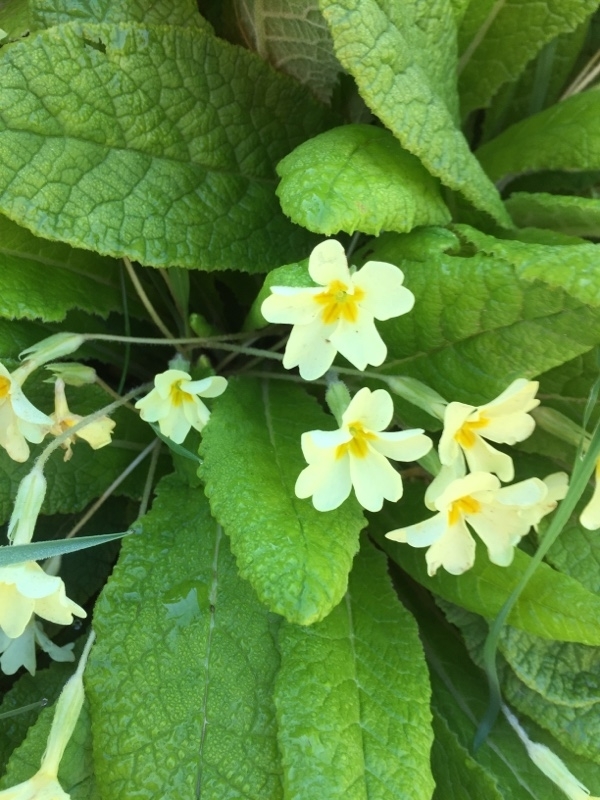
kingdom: Plantae
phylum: Tracheophyta
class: Magnoliopsida
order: Ericales
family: Primulaceae
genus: Primula
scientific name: Primula vulgaris
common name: Primrose
